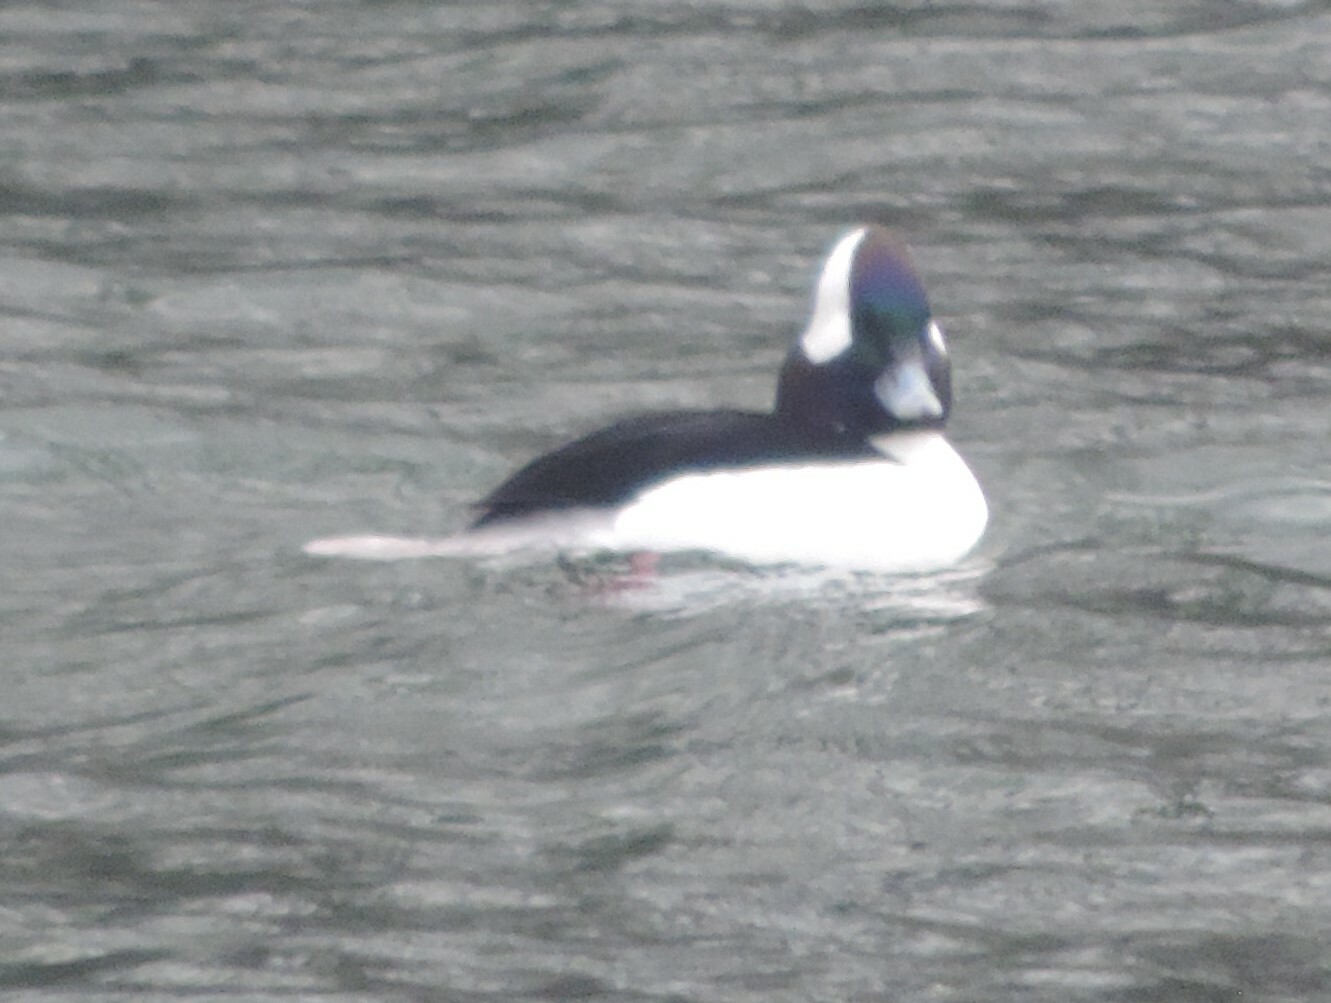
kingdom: Animalia
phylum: Chordata
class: Aves
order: Anseriformes
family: Anatidae
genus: Bucephala
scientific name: Bucephala albeola
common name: Bufflehead
